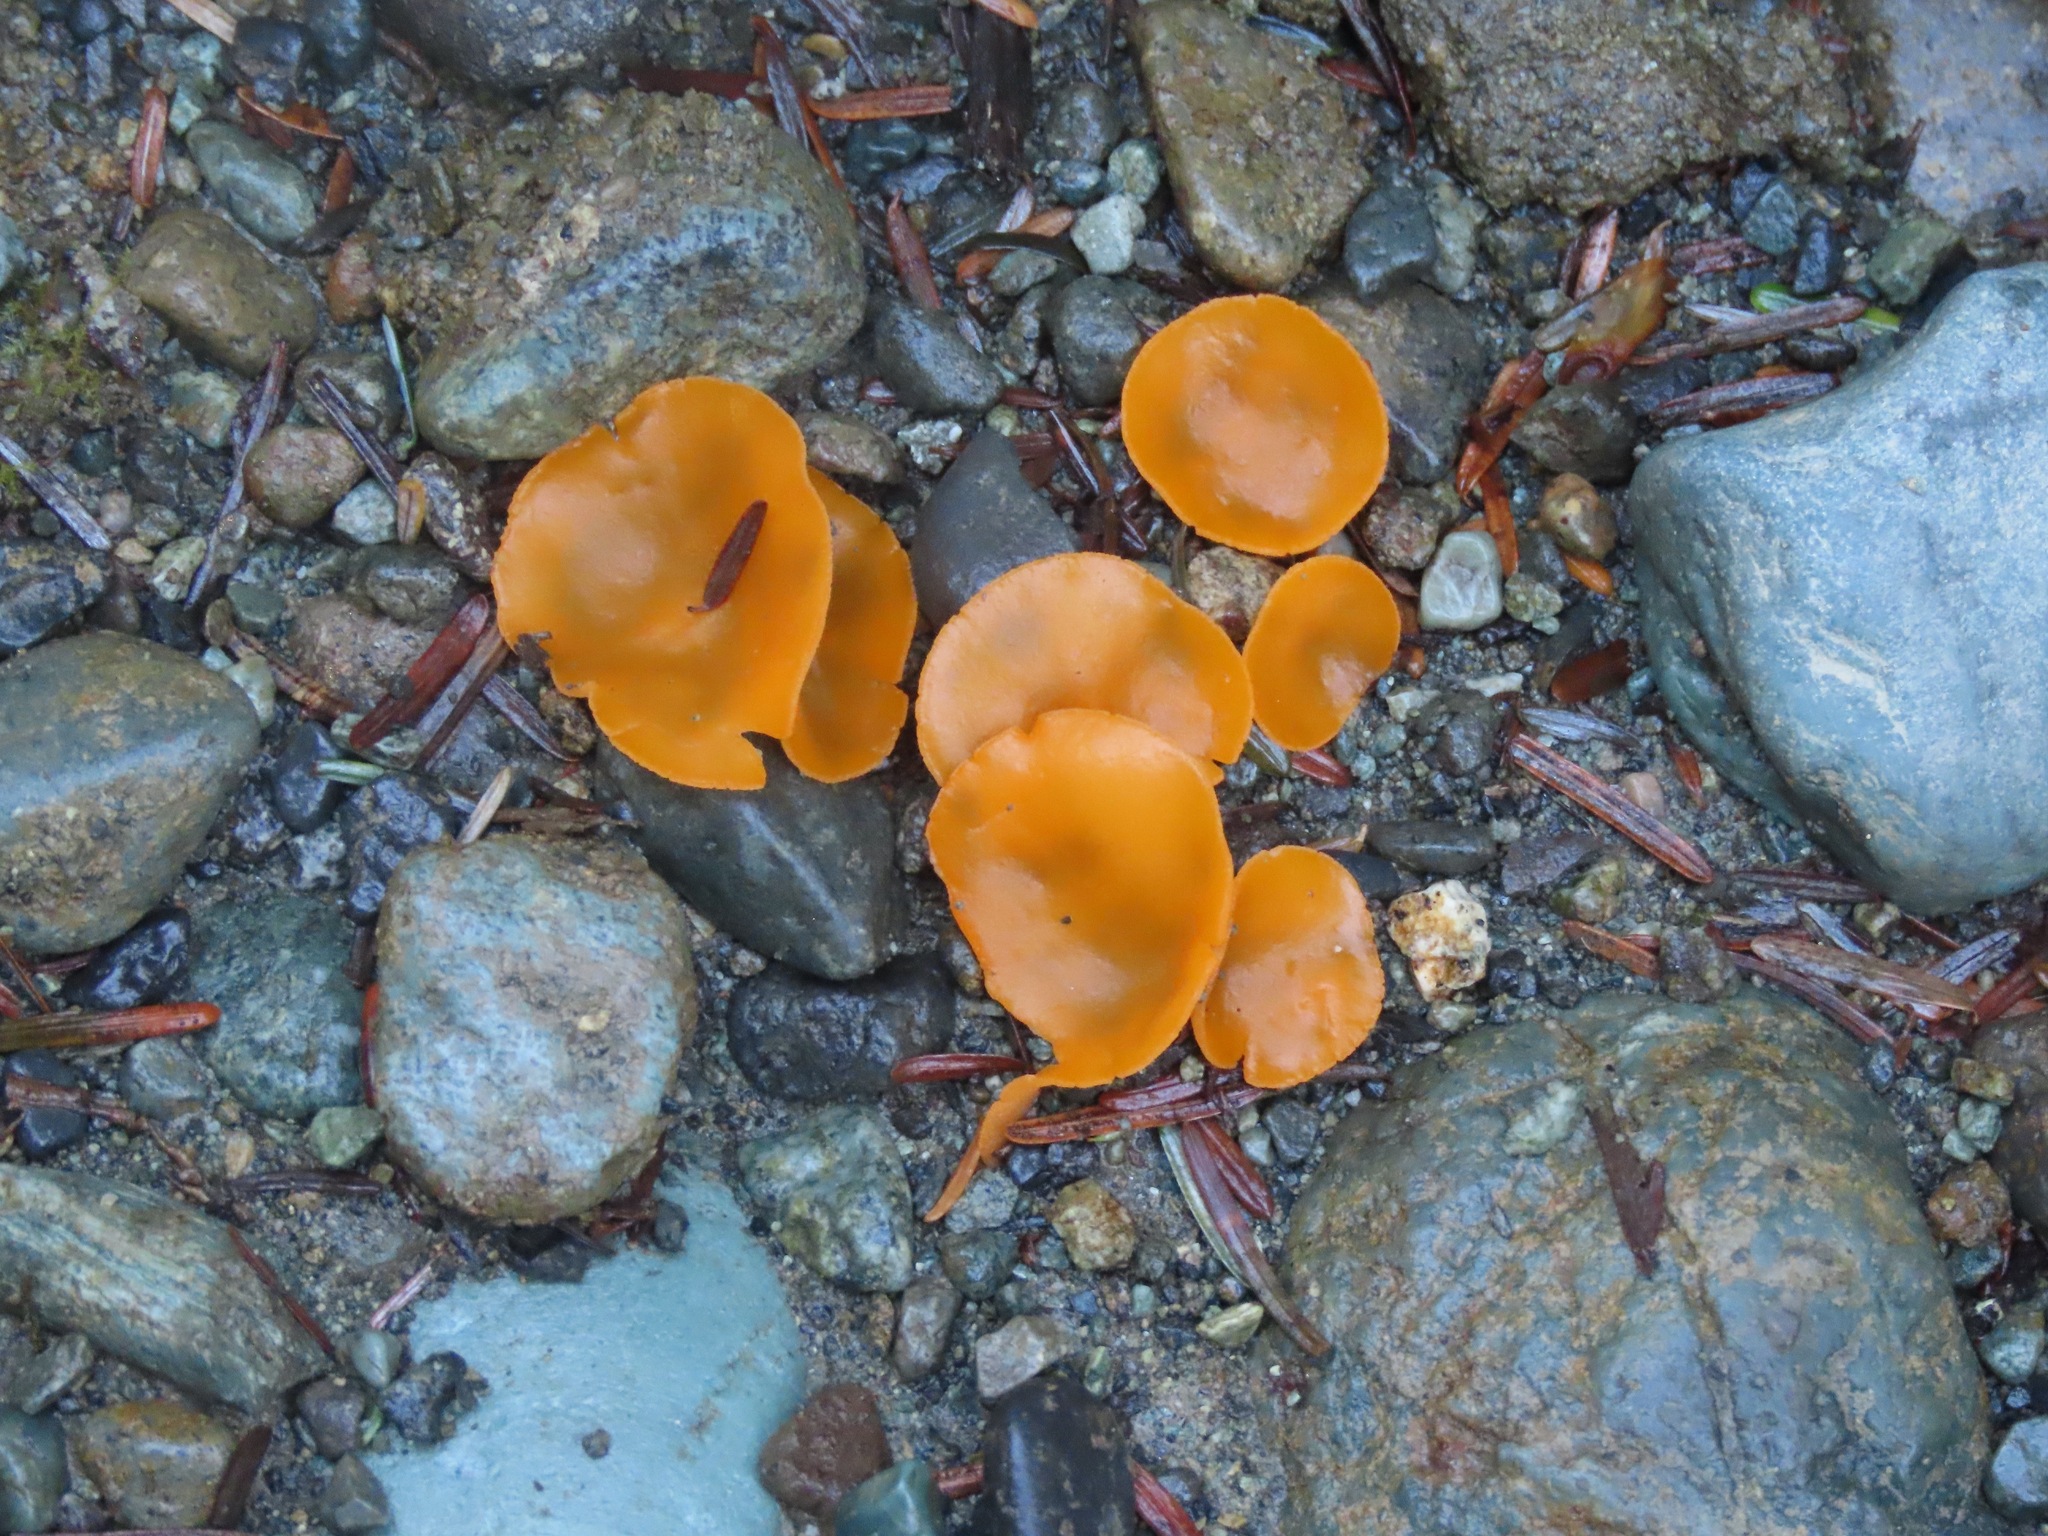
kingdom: Fungi
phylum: Ascomycota
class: Pezizomycetes
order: Pezizales
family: Pyronemataceae
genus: Aleuria
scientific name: Aleuria aurantia
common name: Orange peel fungus
